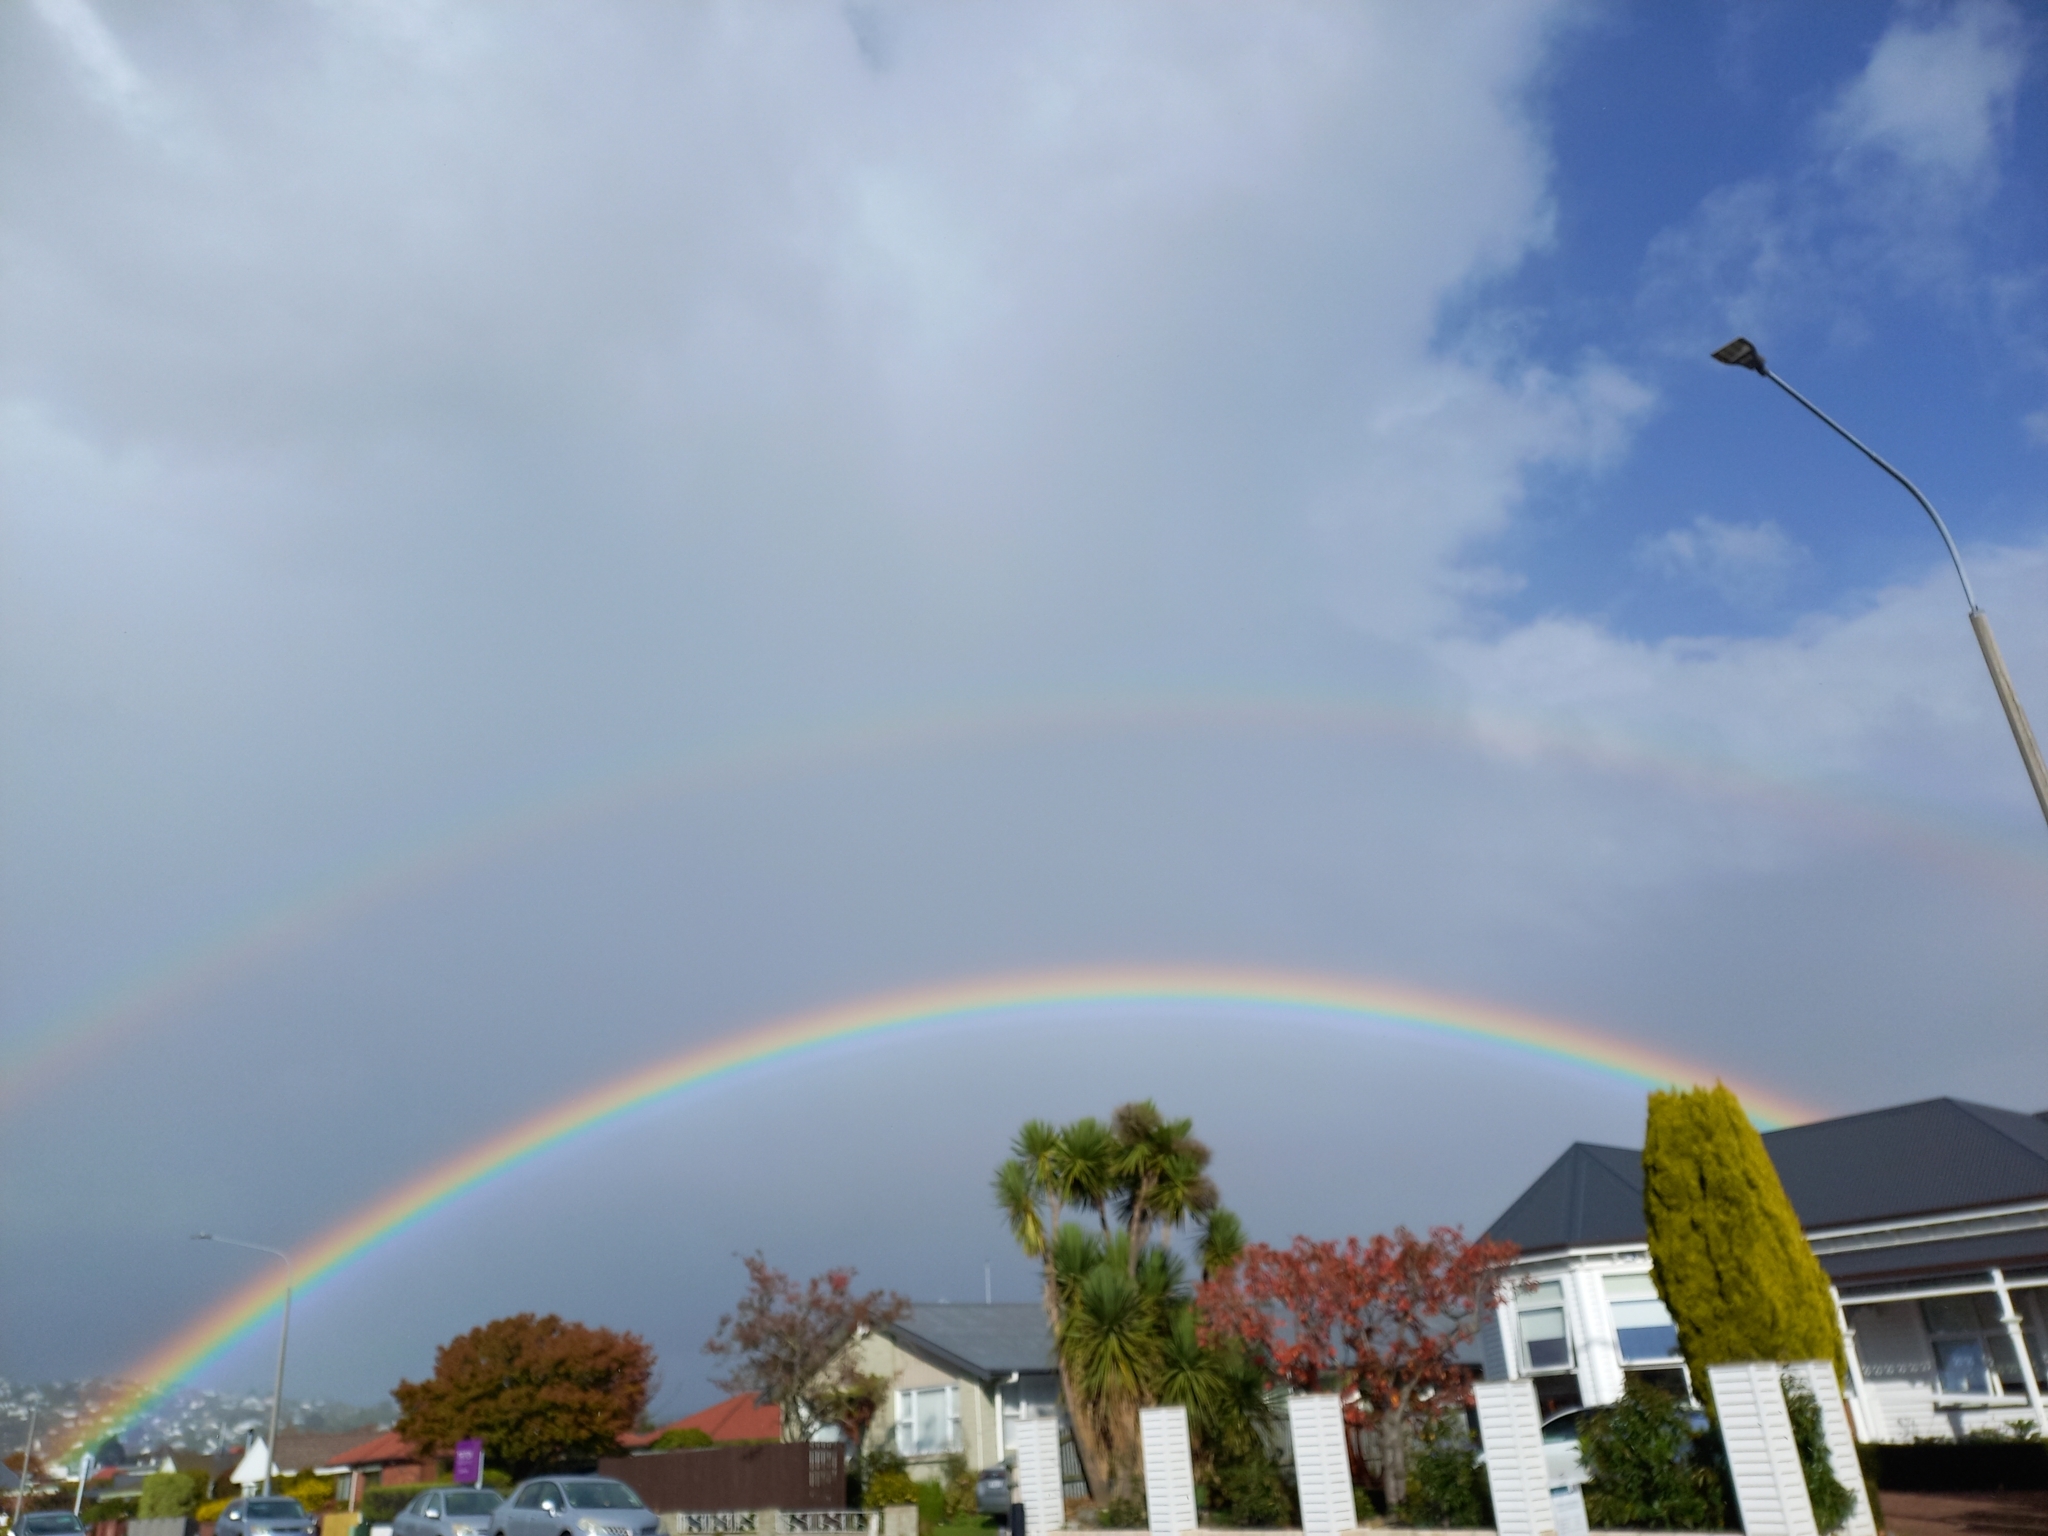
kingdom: Plantae
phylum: Tracheophyta
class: Liliopsida
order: Asparagales
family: Asparagaceae
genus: Cordyline
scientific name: Cordyline australis
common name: Cabbage-palm
